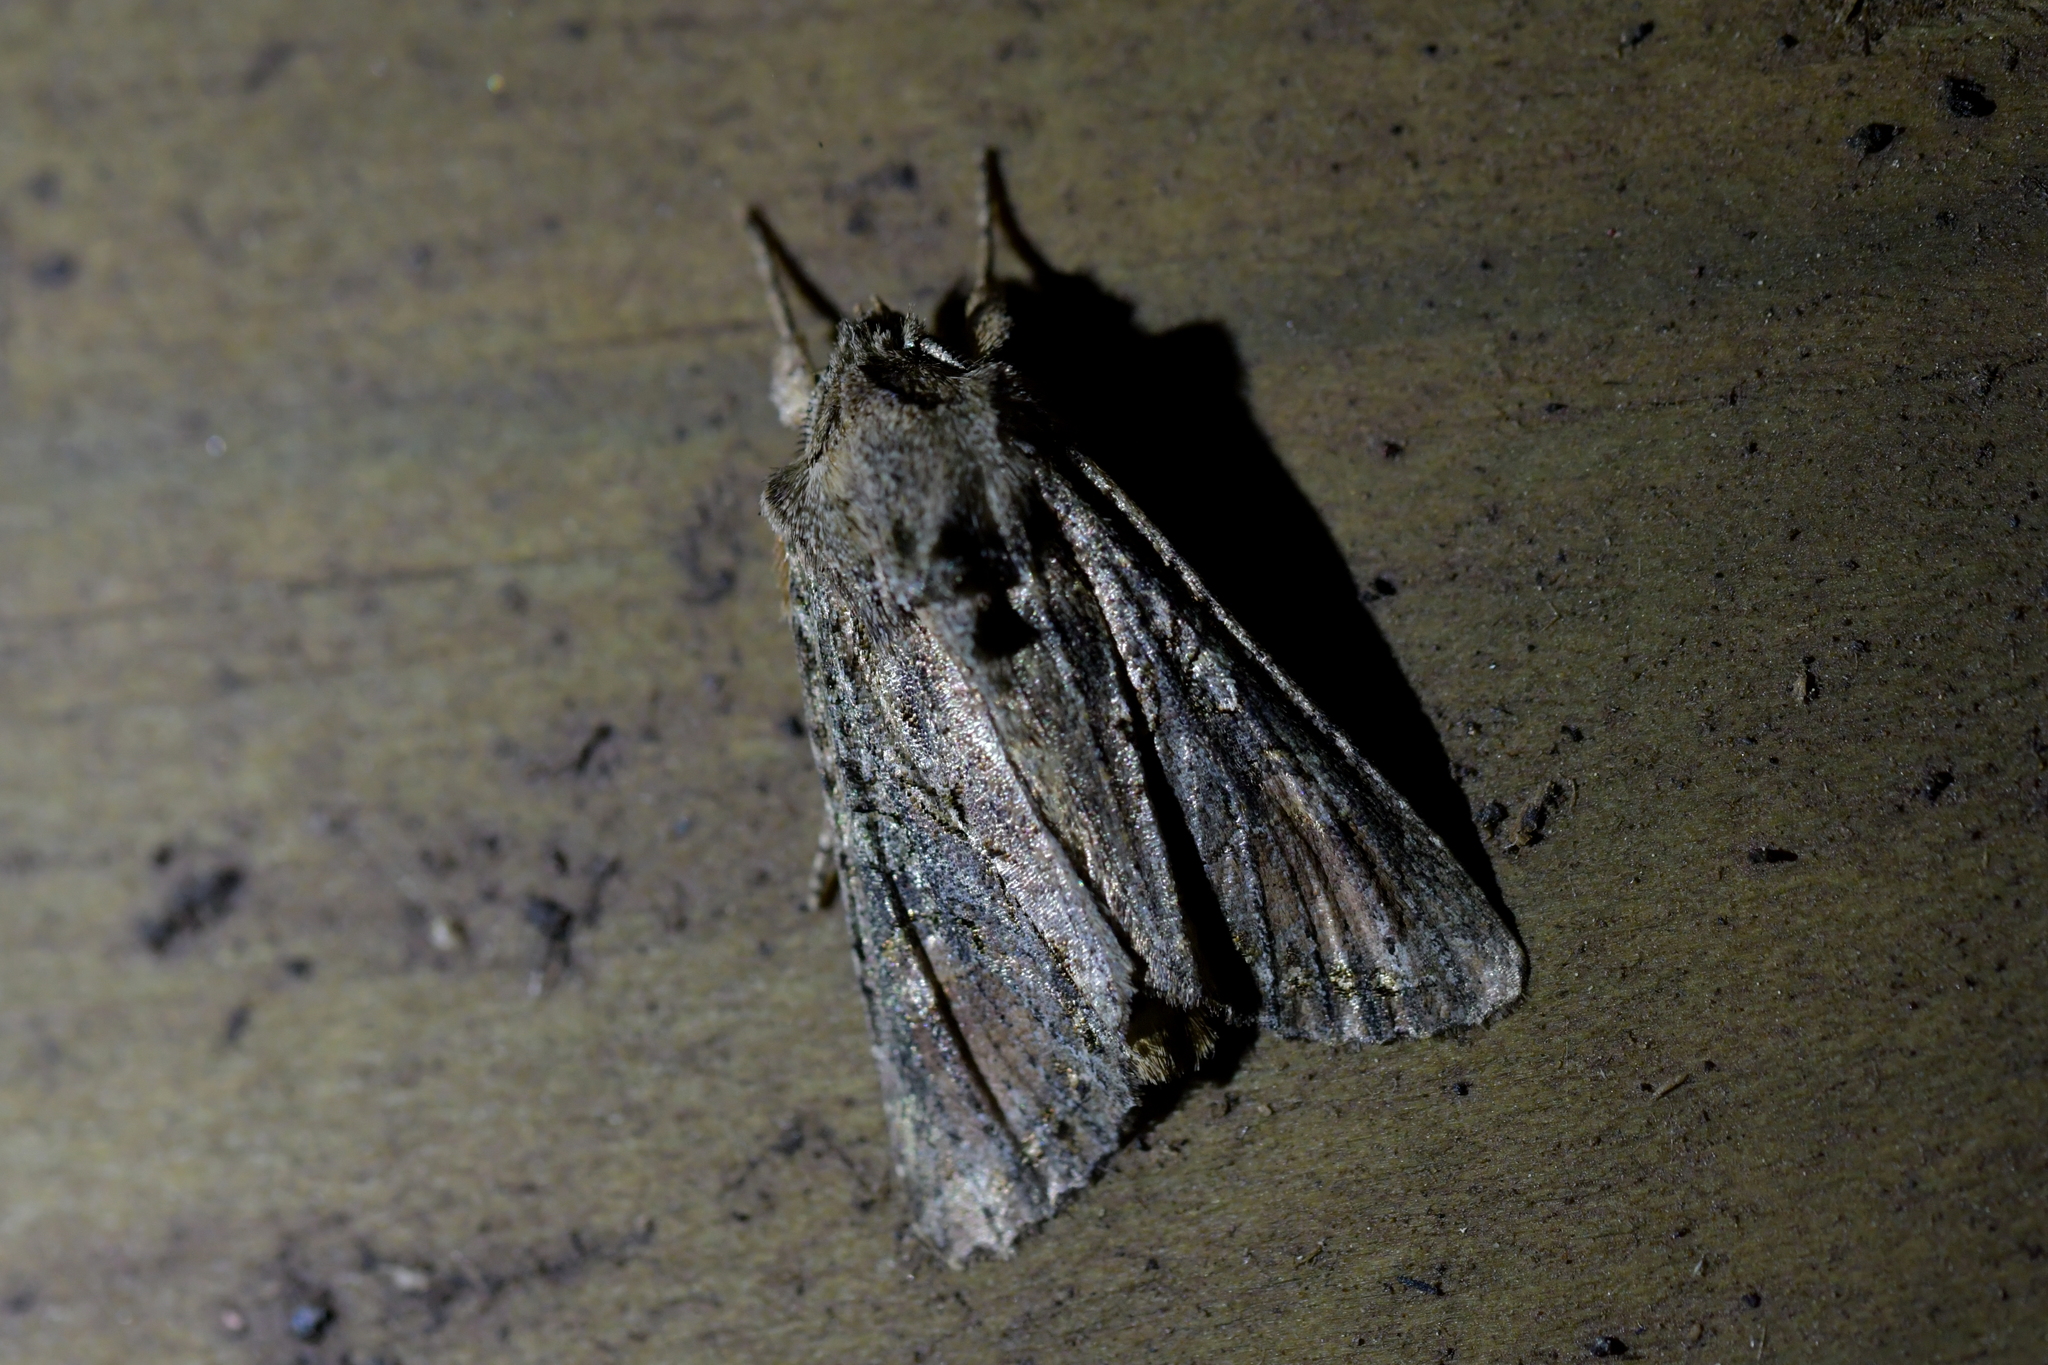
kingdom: Animalia
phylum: Arthropoda
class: Insecta
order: Lepidoptera
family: Noctuidae
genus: Ichneutica
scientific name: Ichneutica mutans
